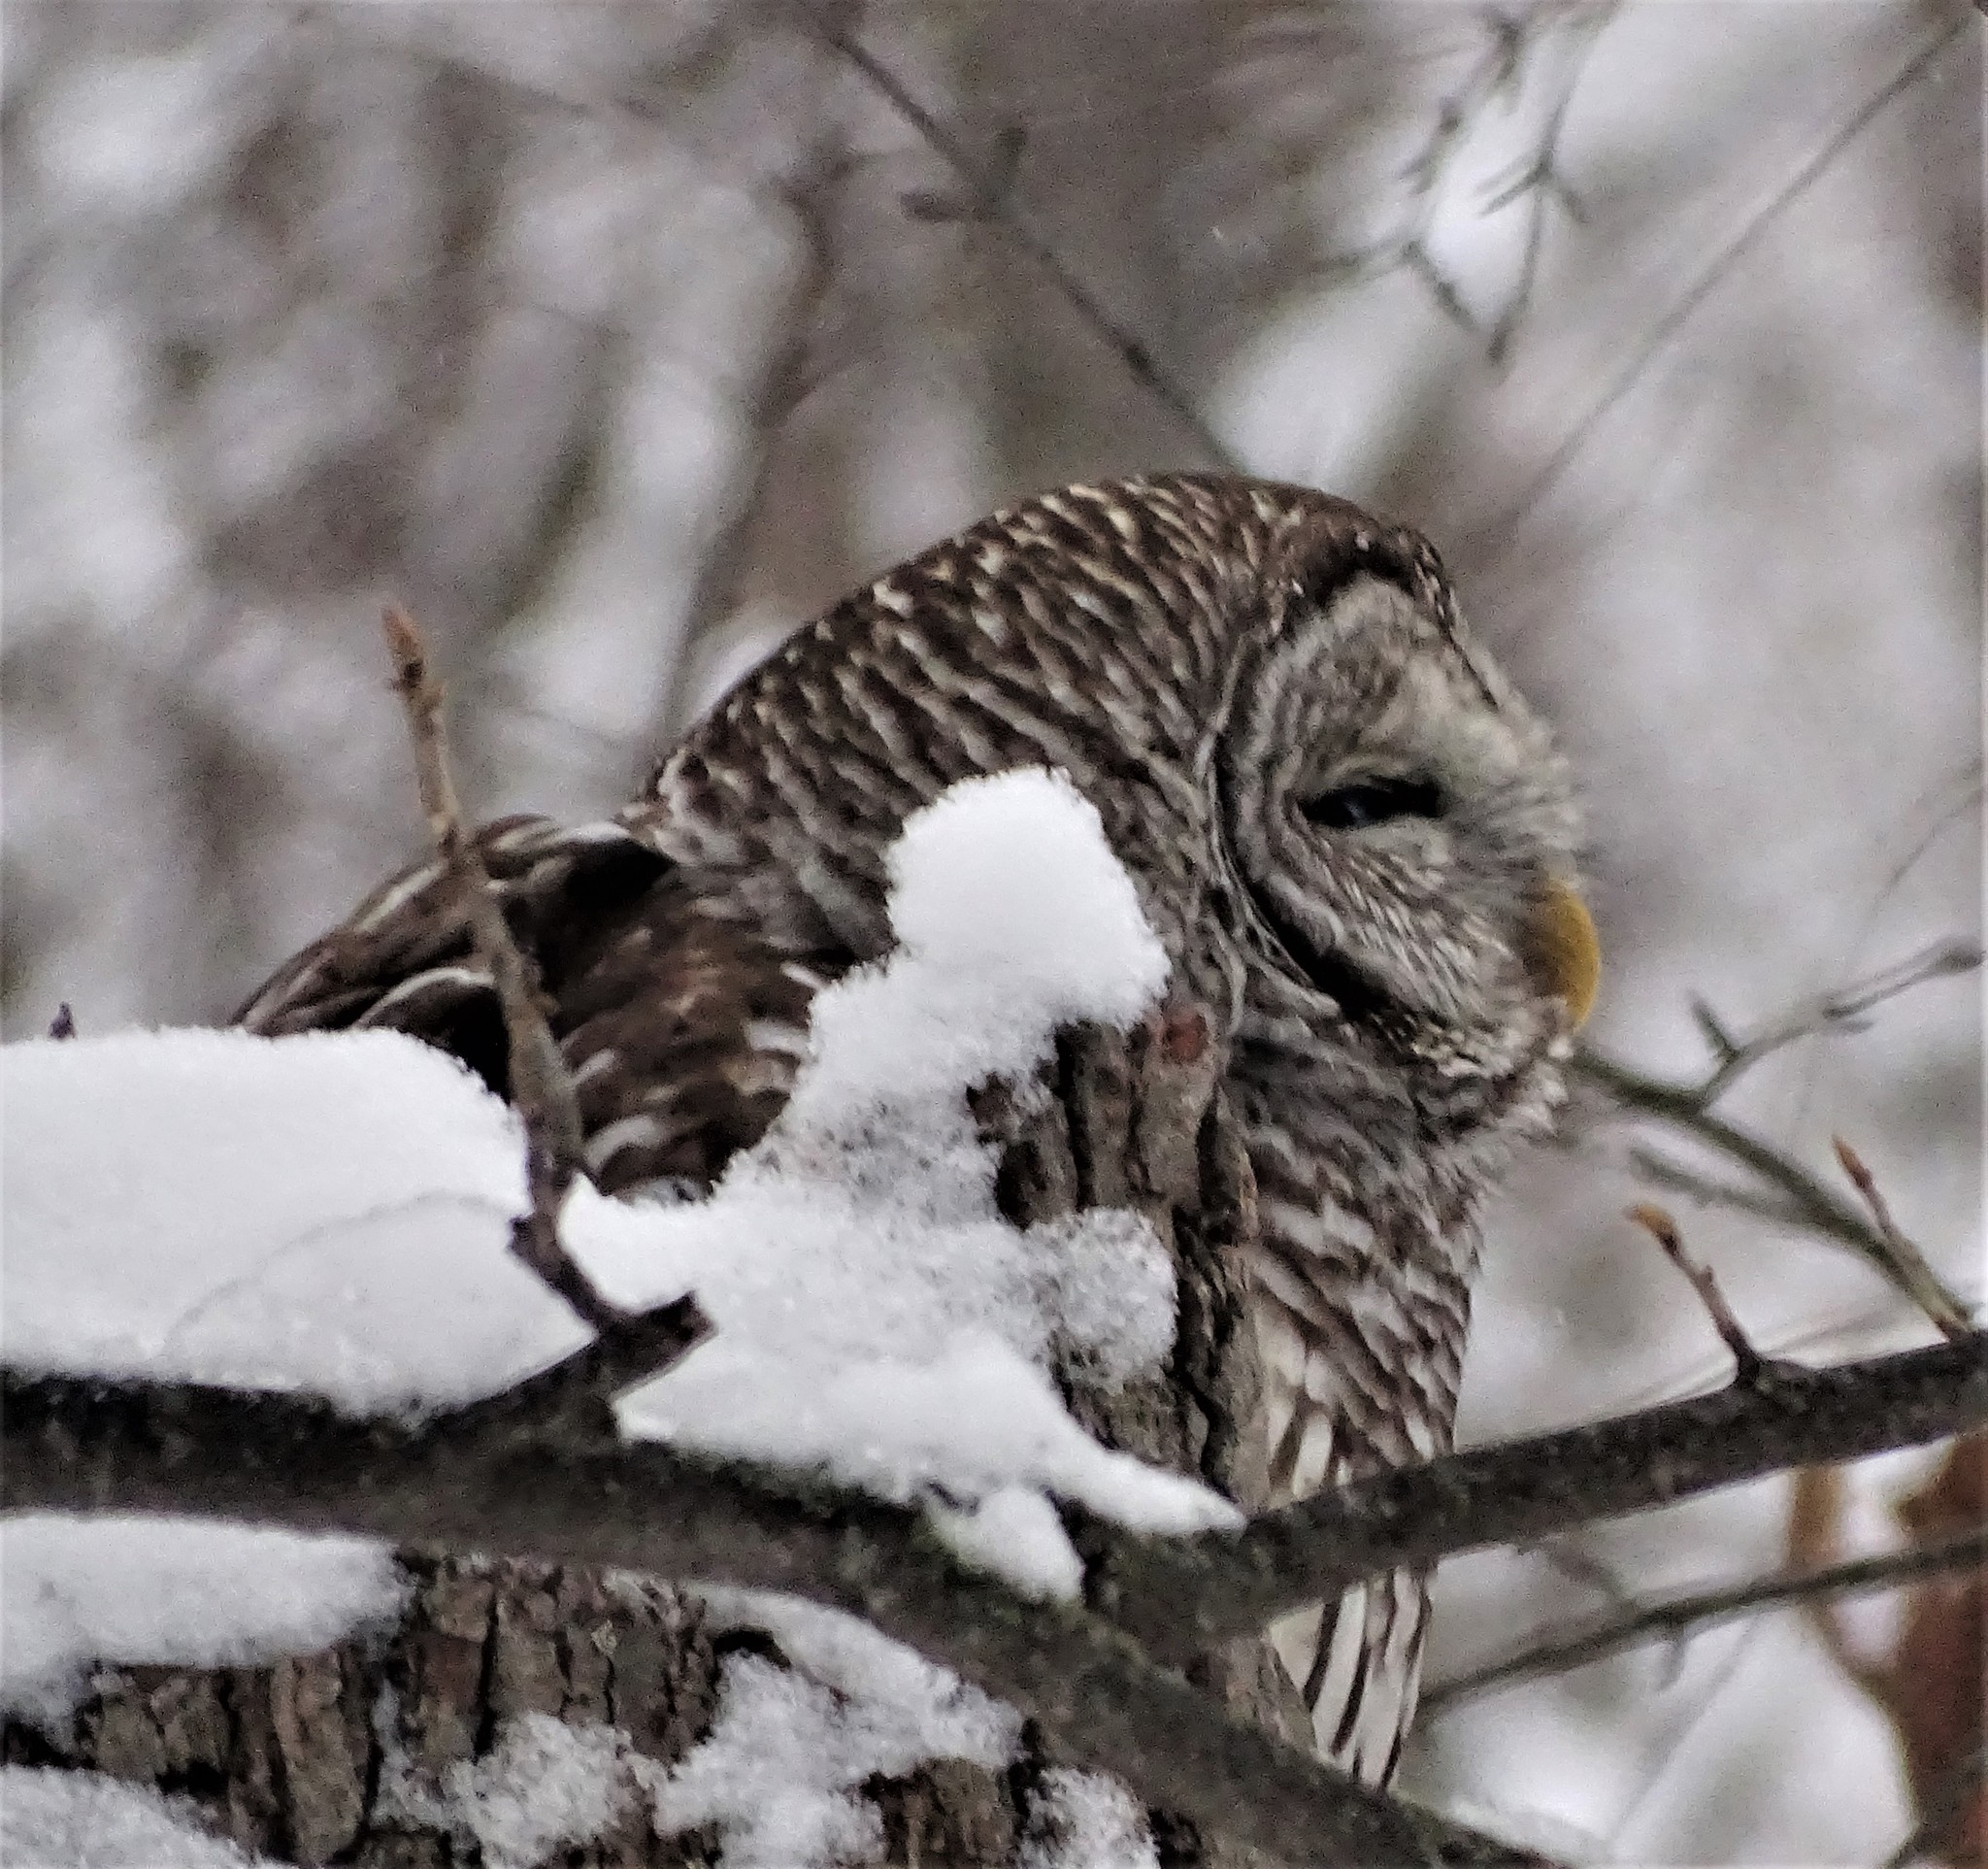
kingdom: Animalia
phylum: Chordata
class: Aves
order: Strigiformes
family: Strigidae
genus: Strix
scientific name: Strix varia
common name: Barred owl
